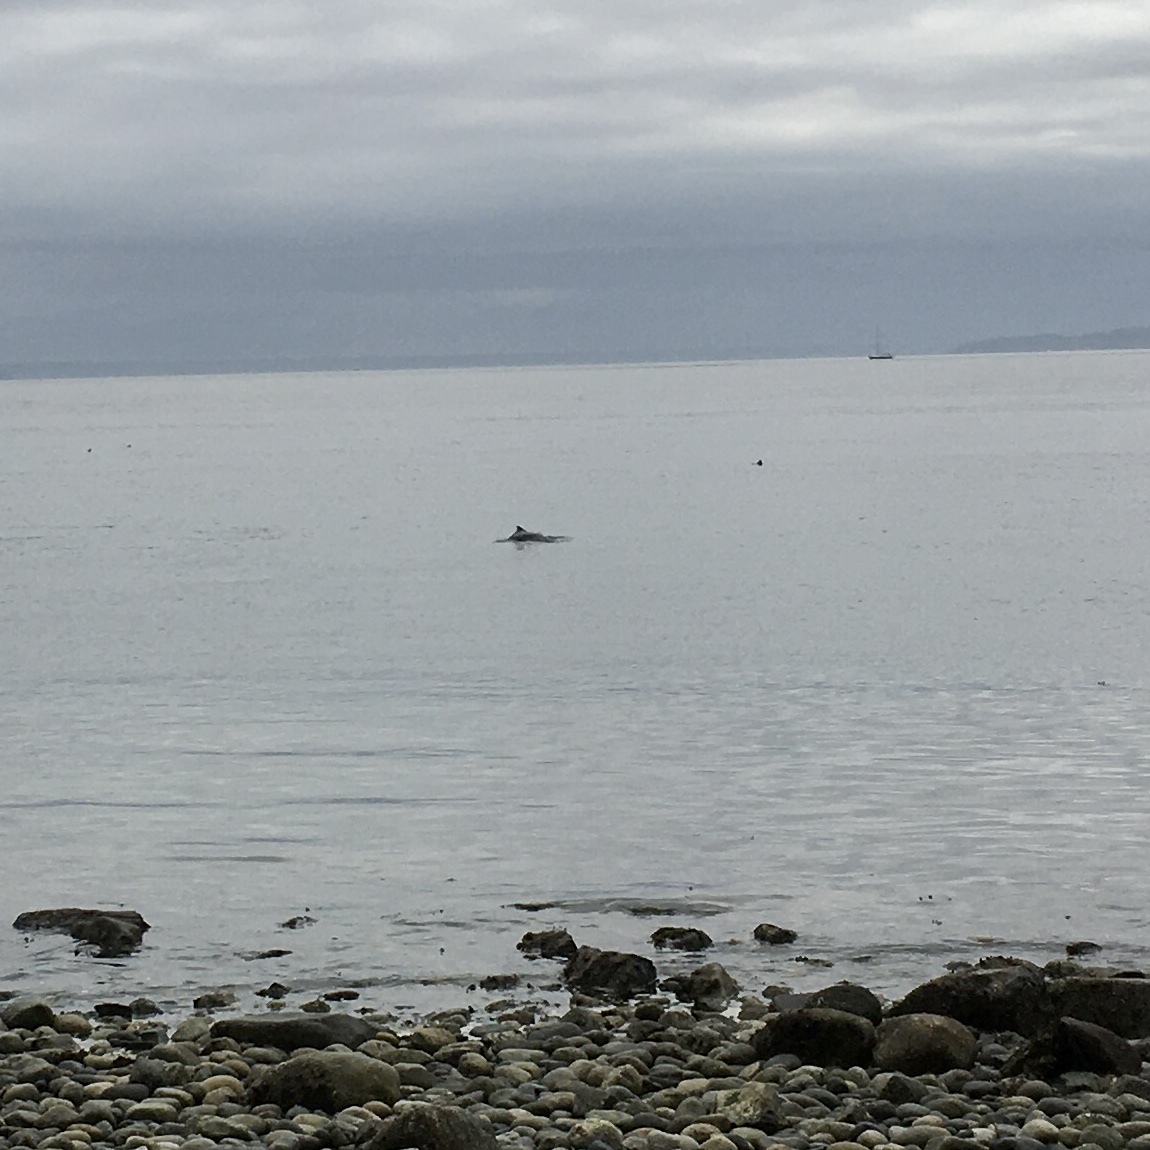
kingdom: Animalia
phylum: Chordata
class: Mammalia
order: Cetacea
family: Phocoenidae
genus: Phocoena
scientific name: Phocoena phocoena
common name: Harbor porpoise
